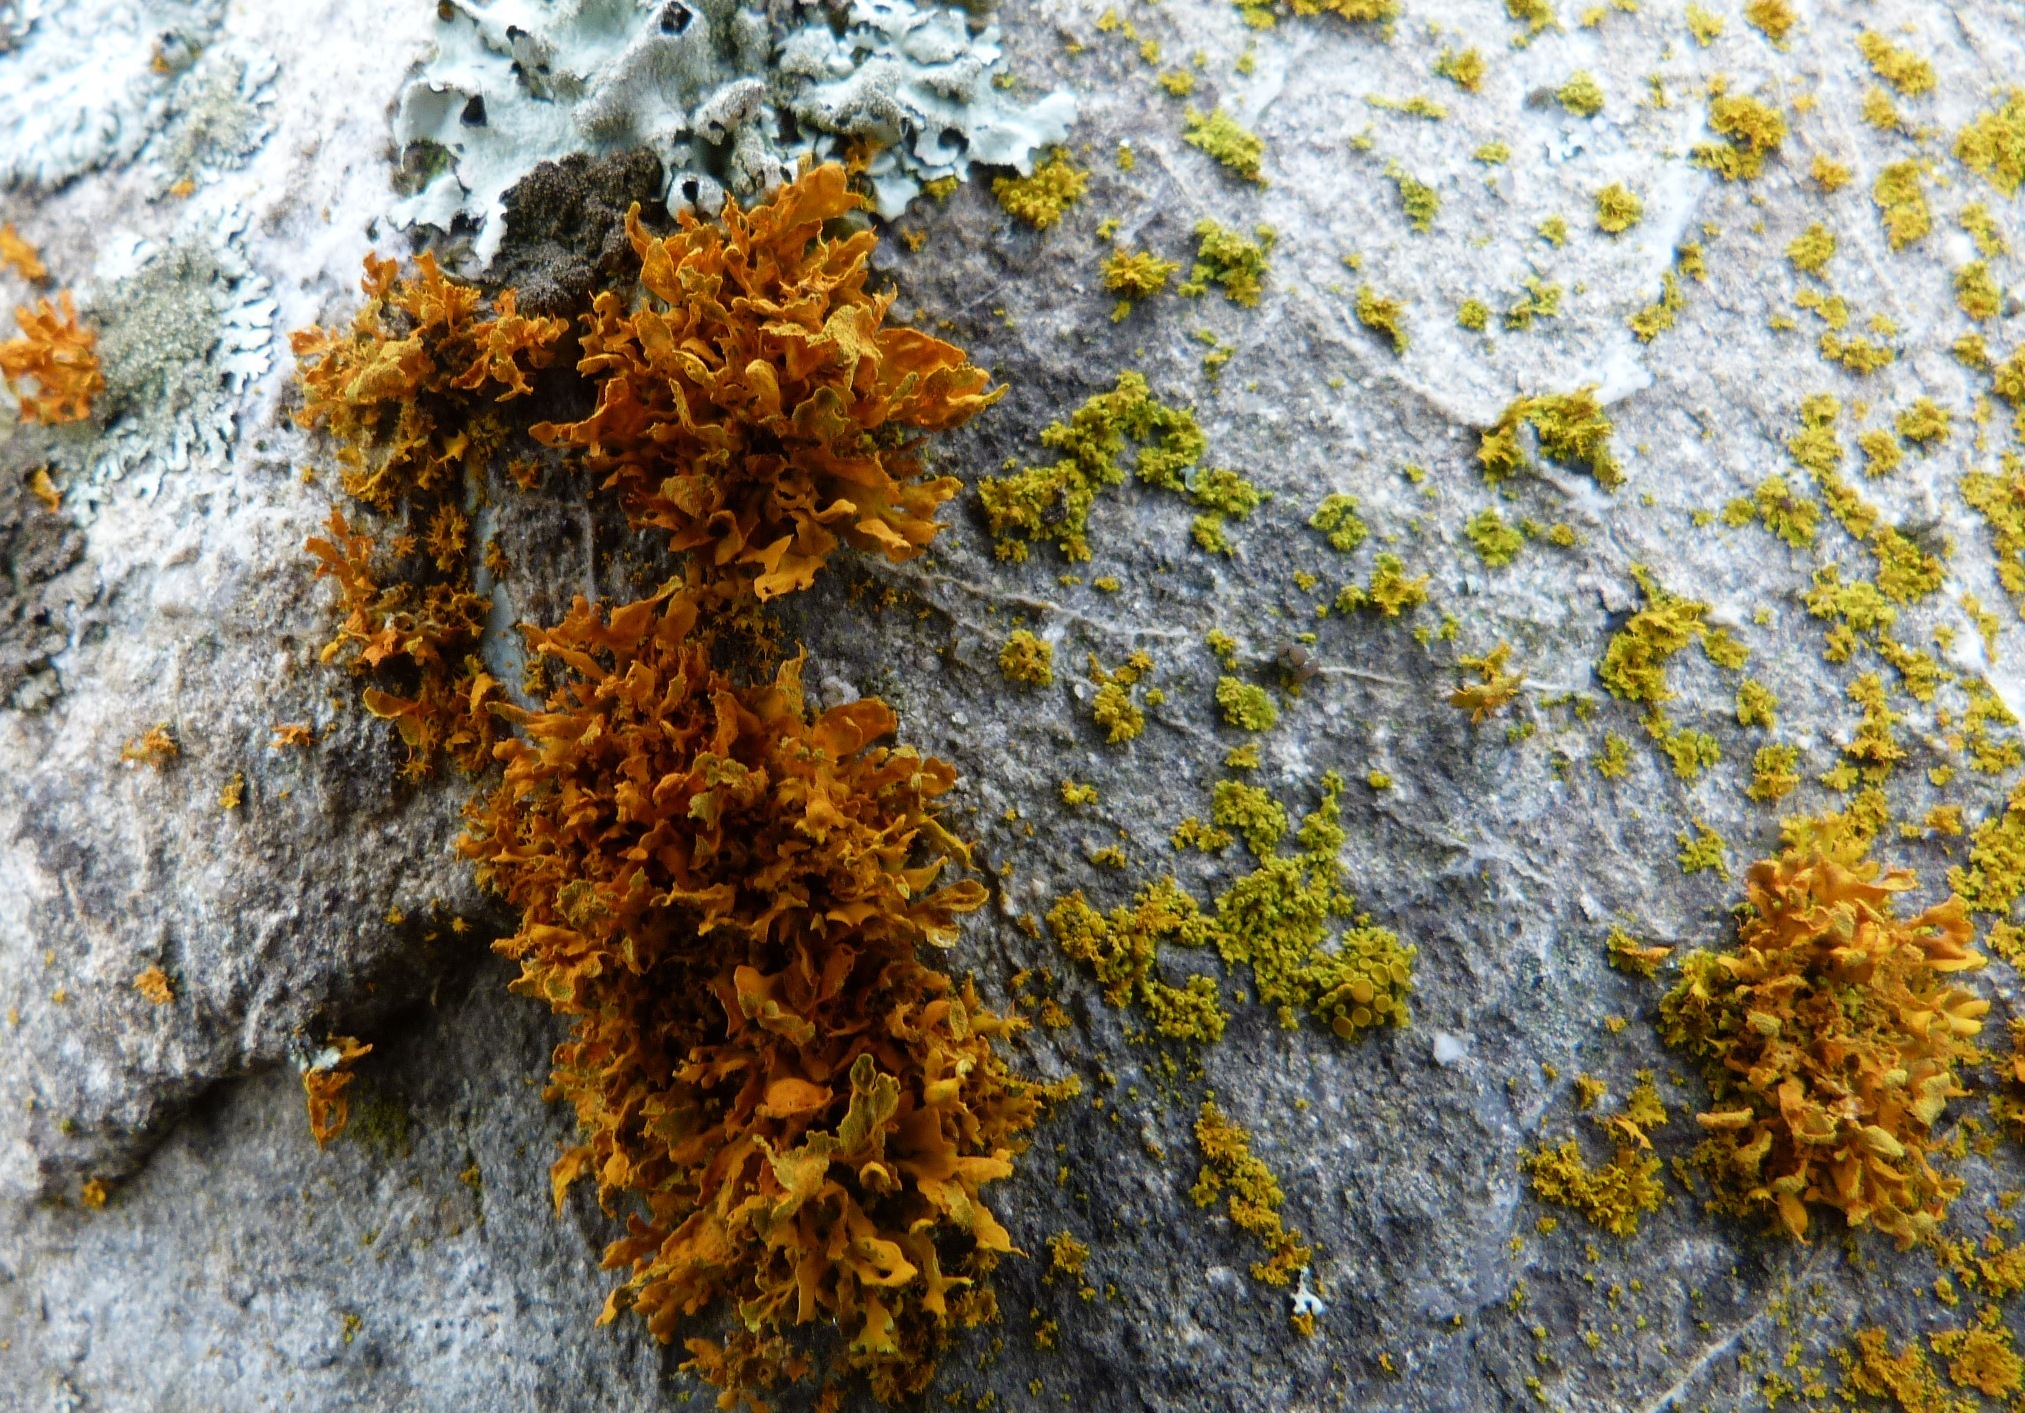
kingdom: Fungi
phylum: Ascomycota
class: Lecanoromycetes
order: Teloschistales
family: Teloschistaceae
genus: Teloschistes
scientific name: Teloschistes velifer
